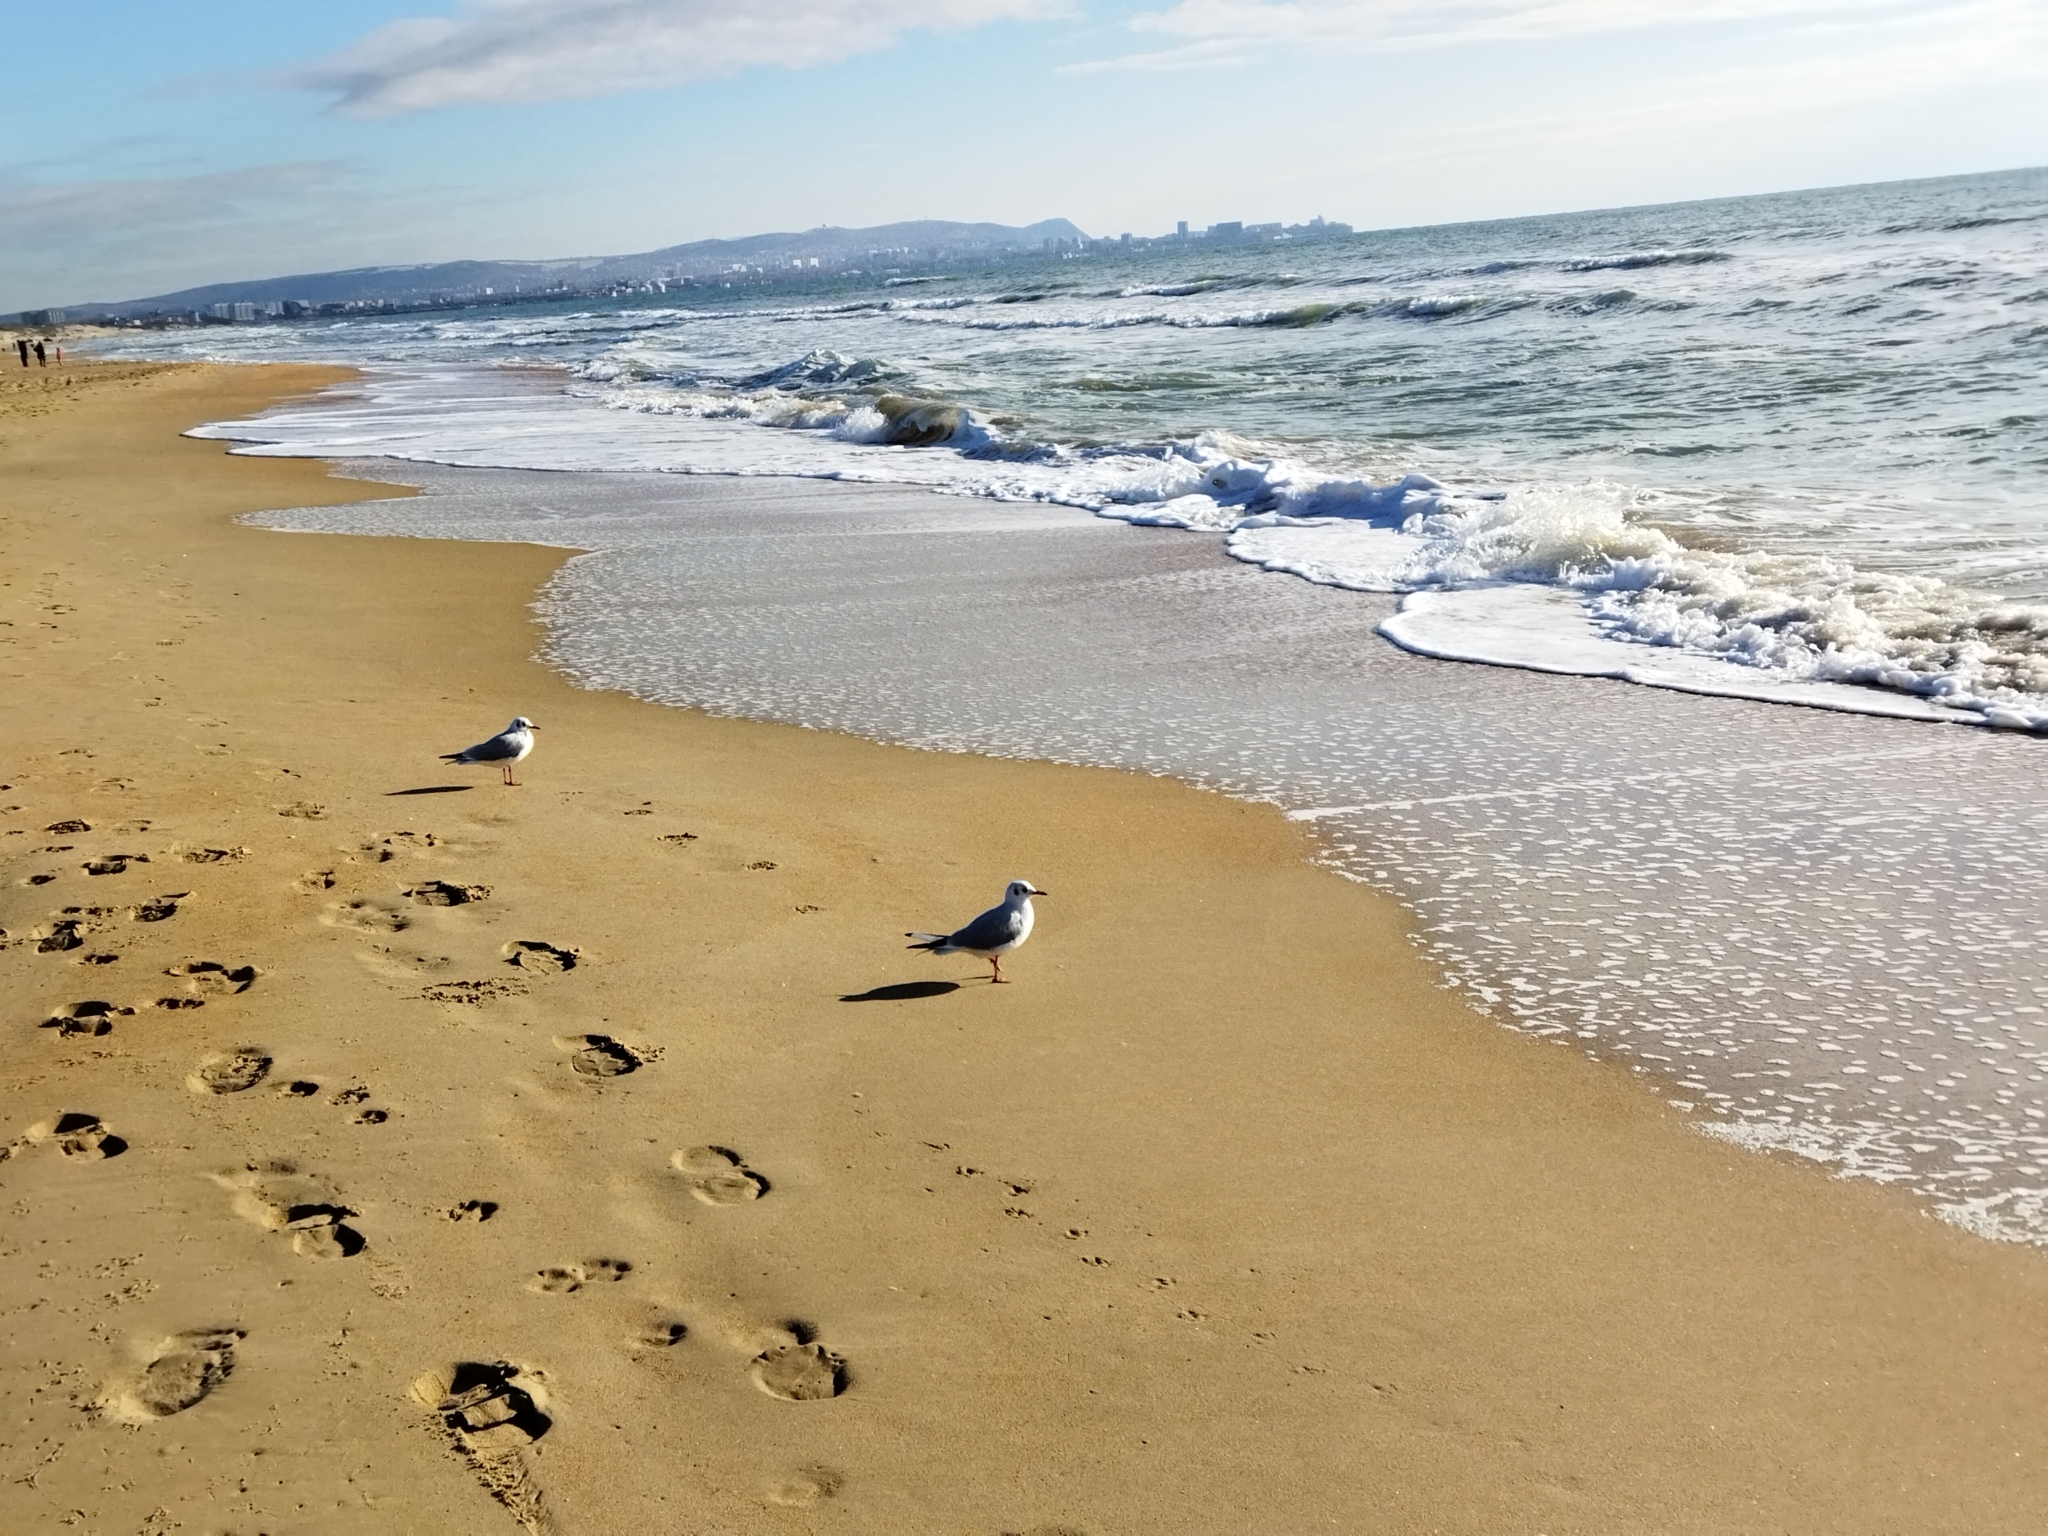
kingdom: Animalia
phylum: Chordata
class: Aves
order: Charadriiformes
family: Laridae
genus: Chroicocephalus
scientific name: Chroicocephalus ridibundus
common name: Black-headed gull
